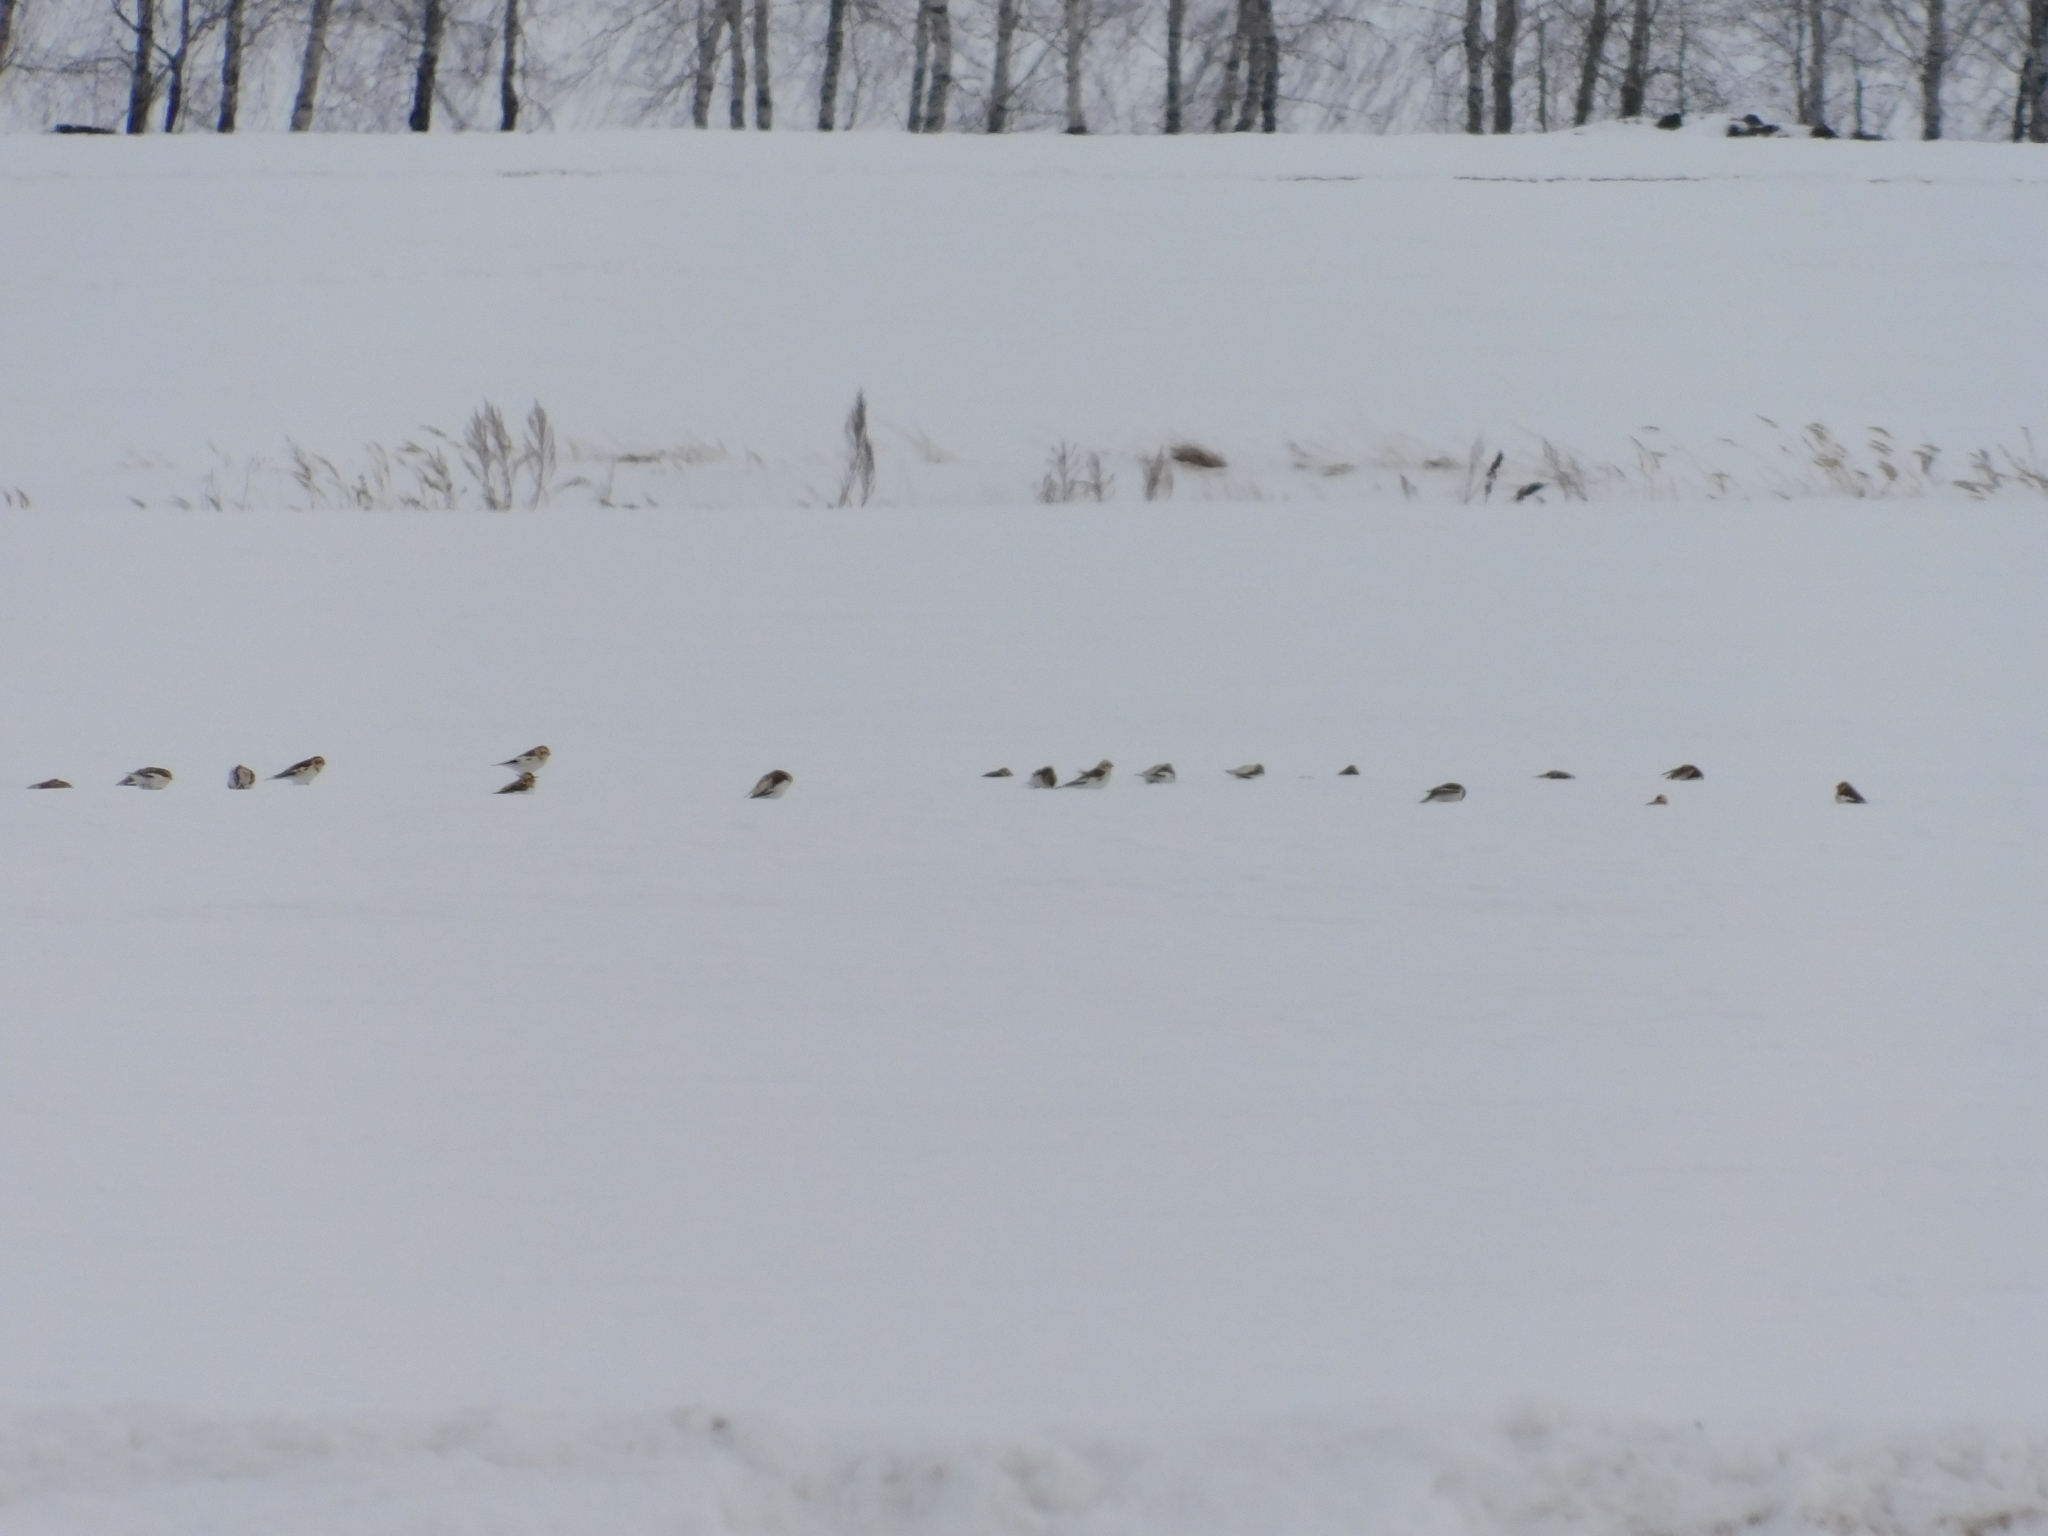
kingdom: Animalia
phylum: Chordata
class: Aves
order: Passeriformes
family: Calcariidae
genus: Plectrophenax
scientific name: Plectrophenax nivalis
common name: Snow bunting
